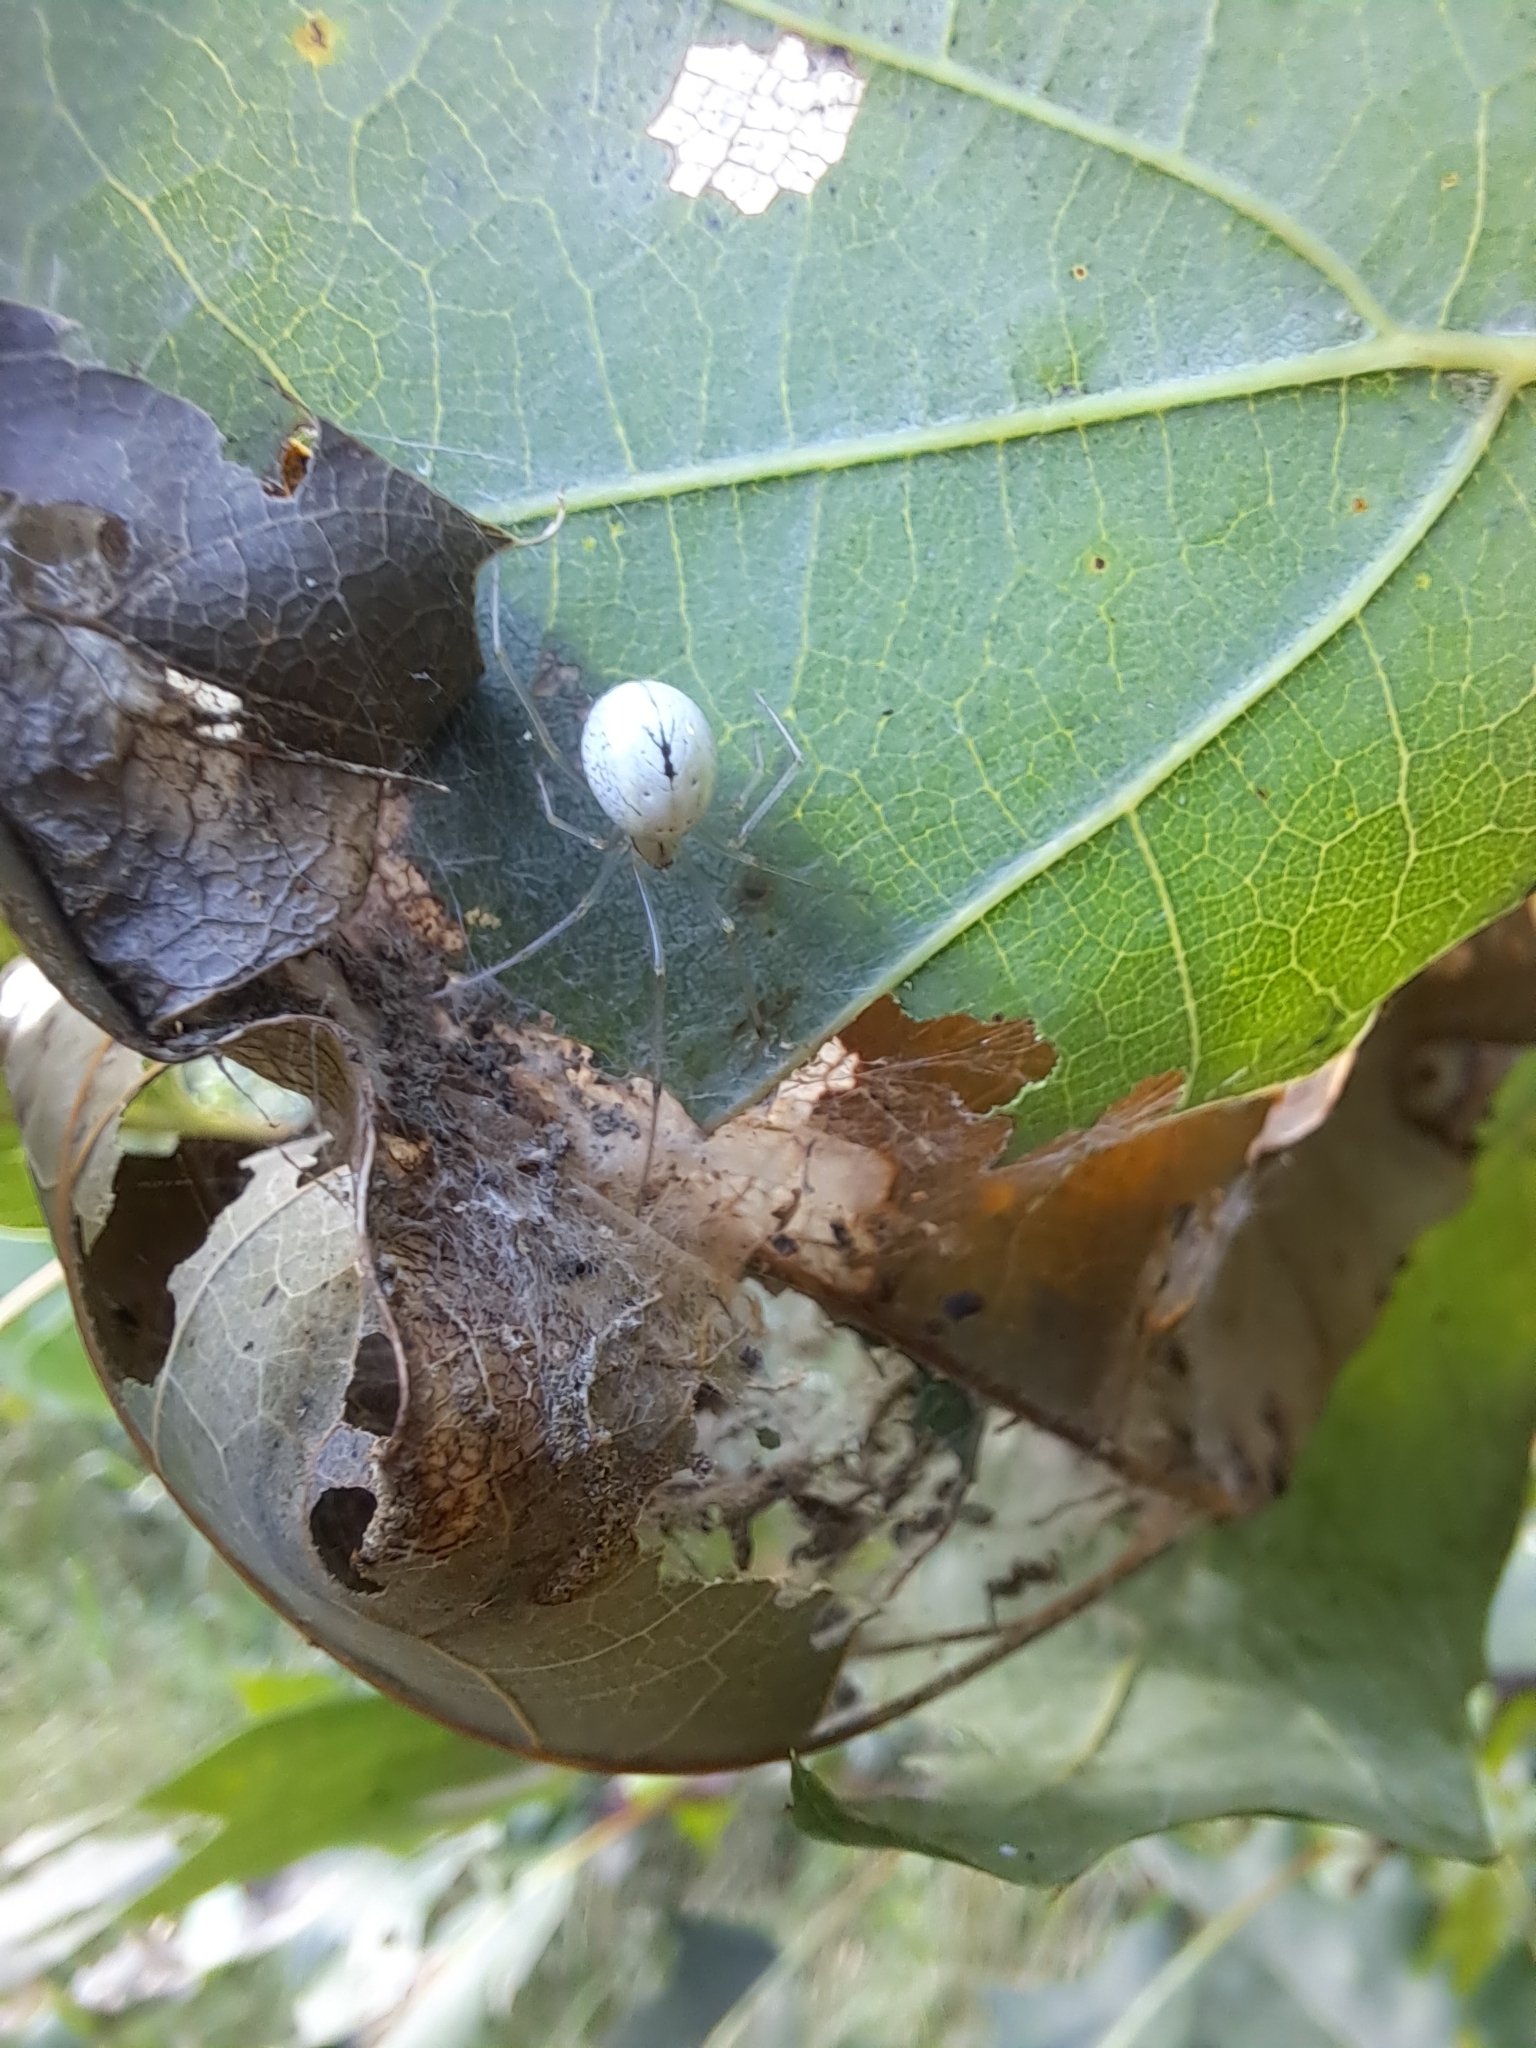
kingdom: Animalia
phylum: Arthropoda
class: Arachnida
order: Araneae
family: Theridiidae
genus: Enoplognatha
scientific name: Enoplognatha ovata
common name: Common candy-striped spider
